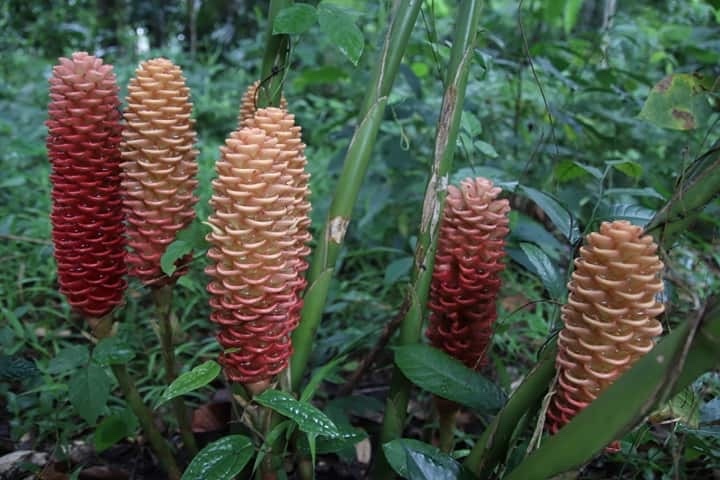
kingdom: Plantae
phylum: Tracheophyta
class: Liliopsida
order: Zingiberales
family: Zingiberaceae
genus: Zingiber
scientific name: Zingiber spectabile
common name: Beehive ginger
